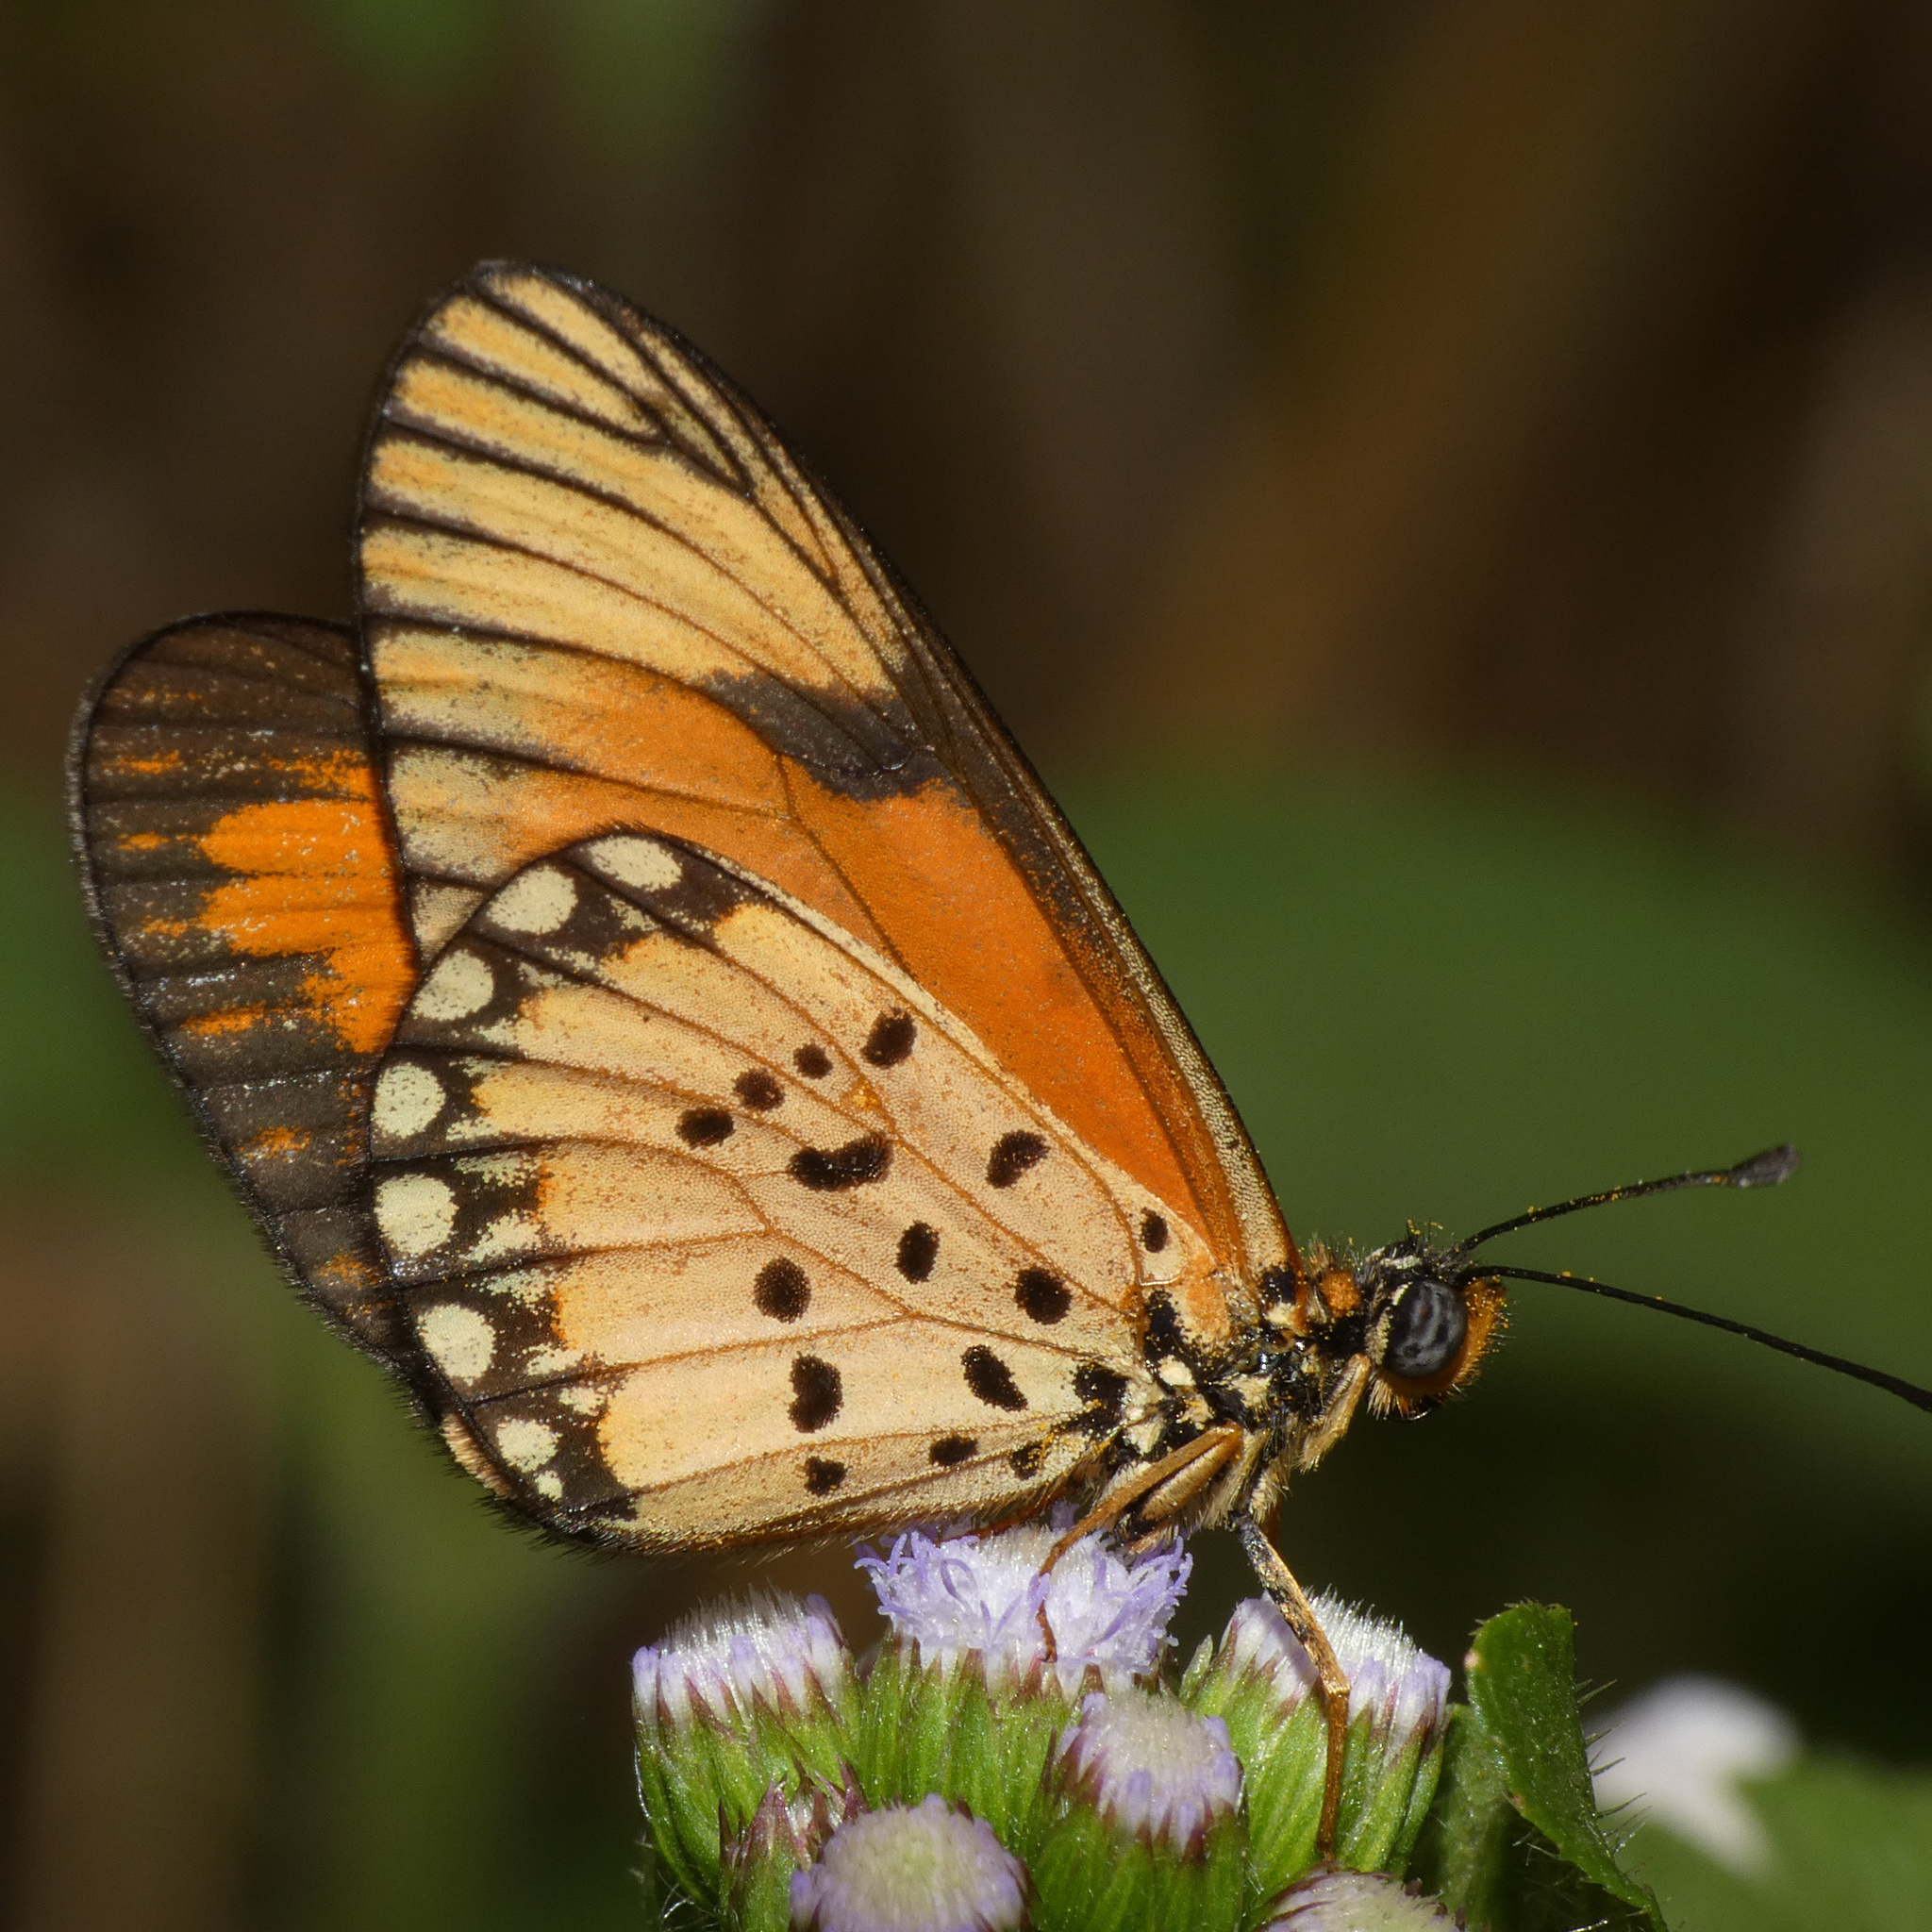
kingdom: Animalia
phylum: Arthropoda
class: Insecta
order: Lepidoptera
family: Nymphalidae
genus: Acraea
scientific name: Acraea Telchinia serena
